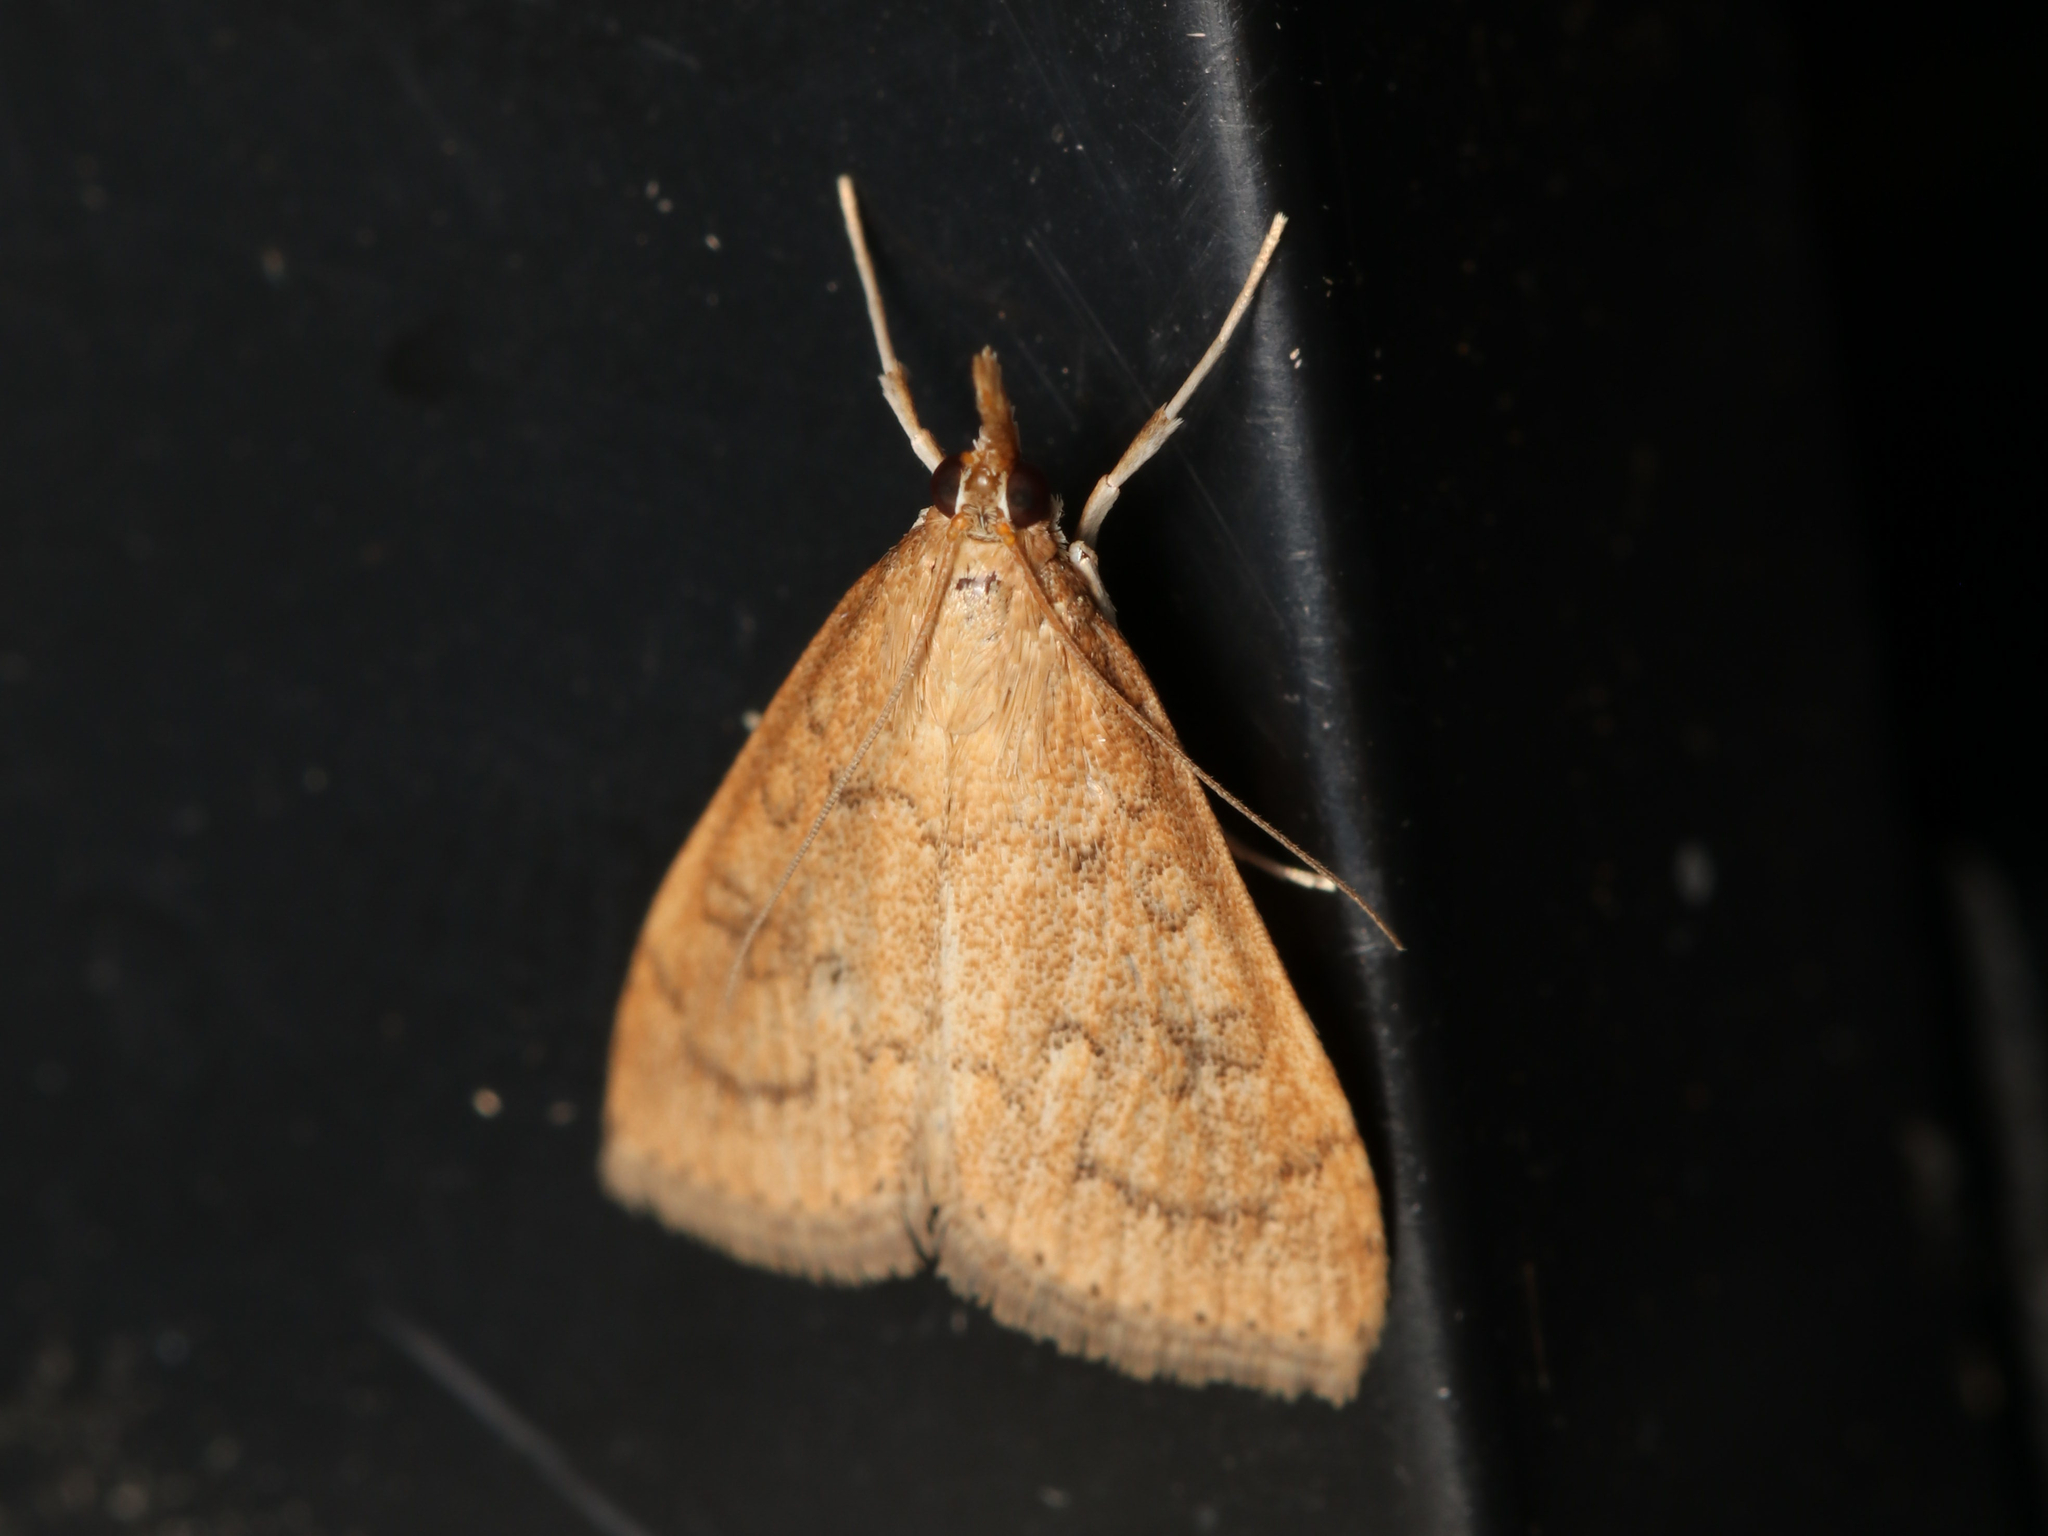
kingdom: Animalia
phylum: Arthropoda
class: Insecta
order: Lepidoptera
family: Crambidae
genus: Udea
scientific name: Udea rubigalis
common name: Celery leaftier moth
